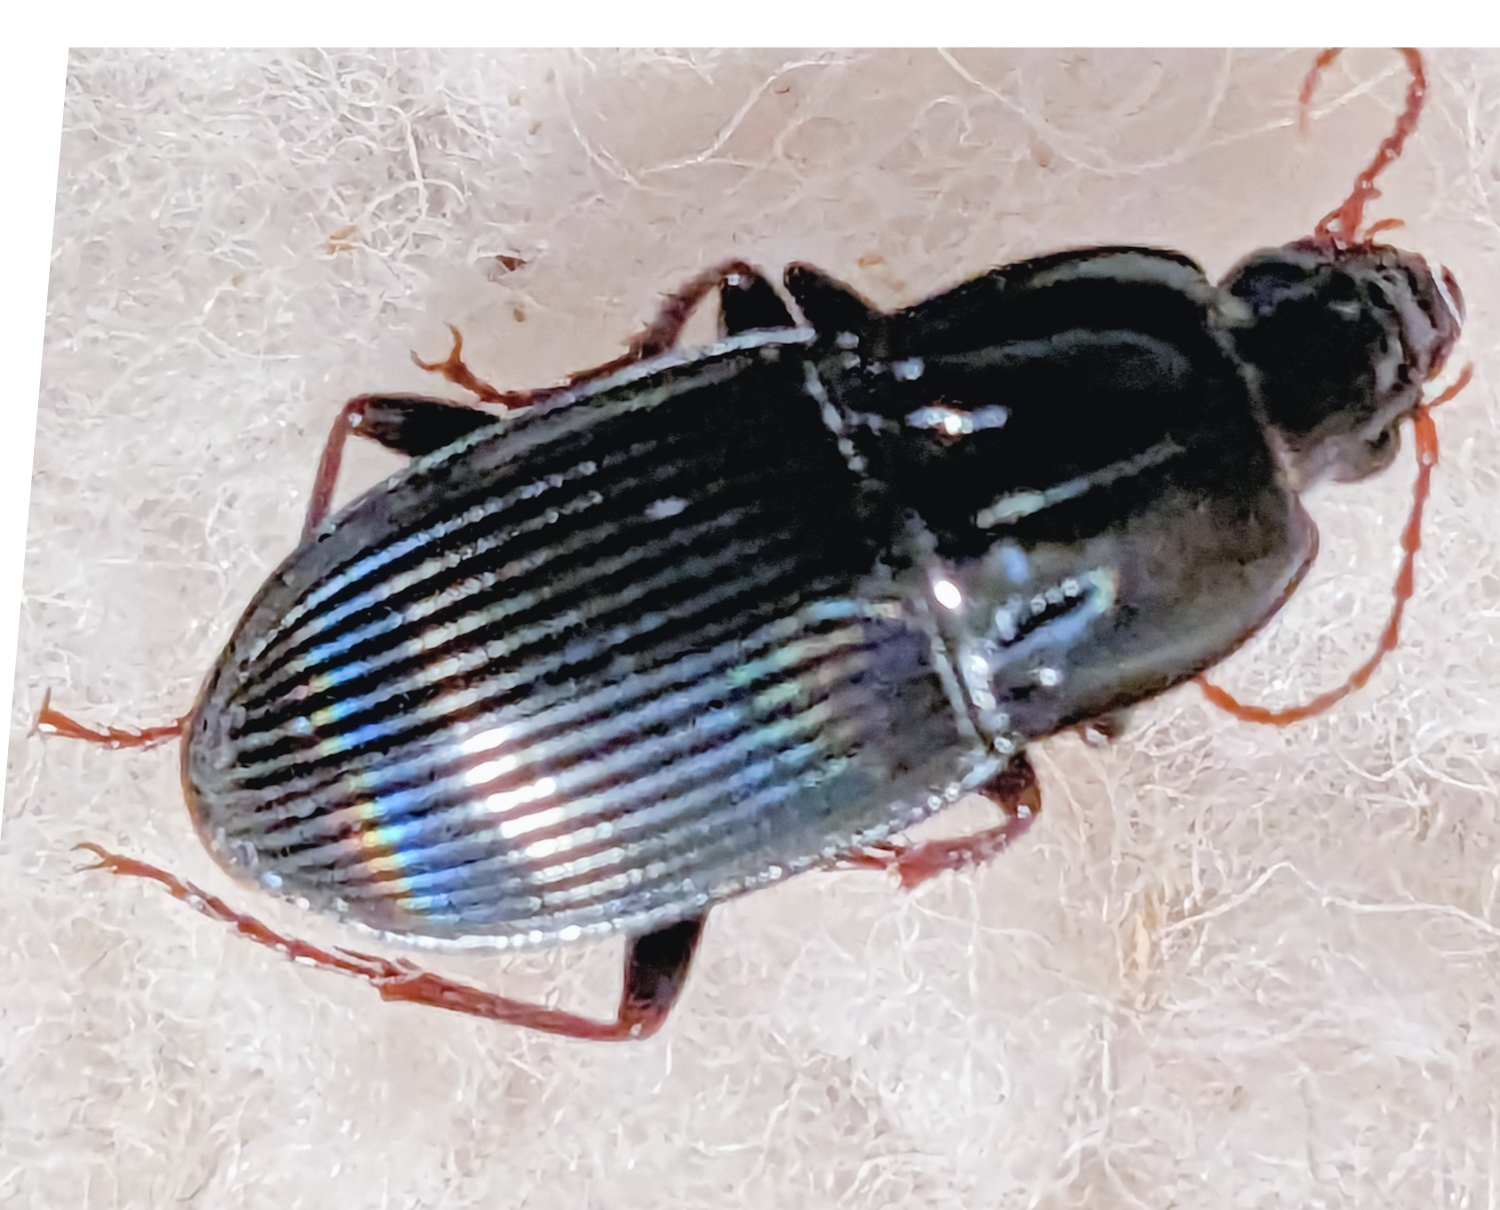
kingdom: Animalia
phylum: Arthropoda
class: Insecta
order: Coleoptera
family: Carabidae
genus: Abacidus
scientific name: Abacidus
